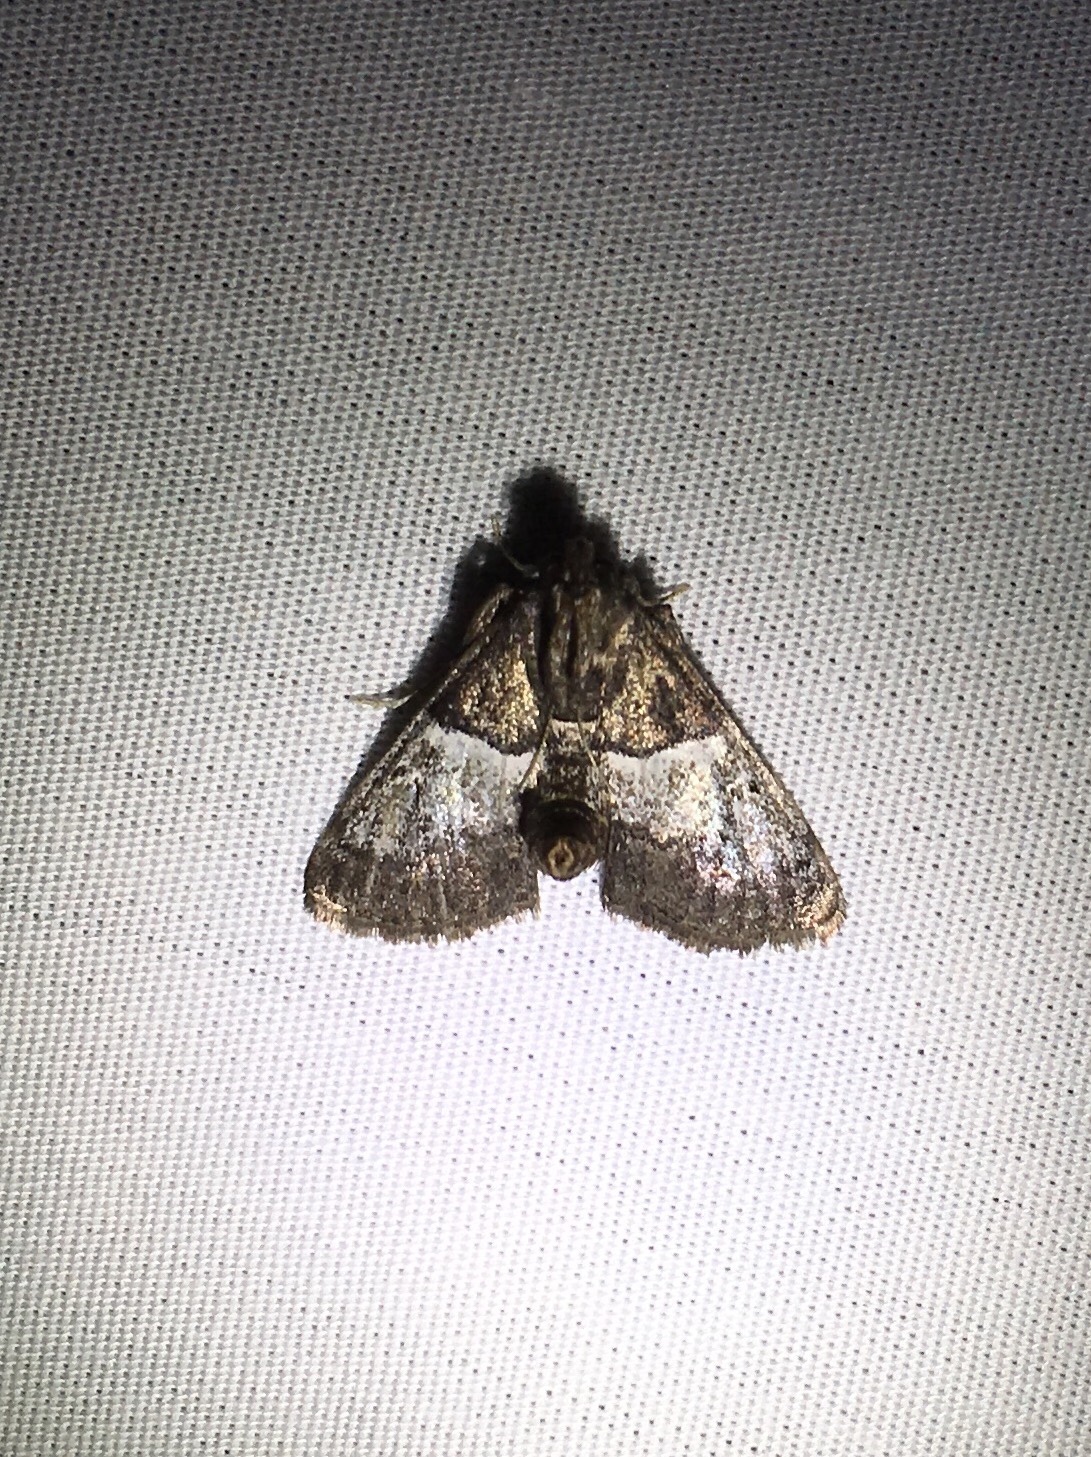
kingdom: Animalia
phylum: Arthropoda
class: Insecta
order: Lepidoptera
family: Pyralidae
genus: Macalla
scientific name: Macalla zelleri
